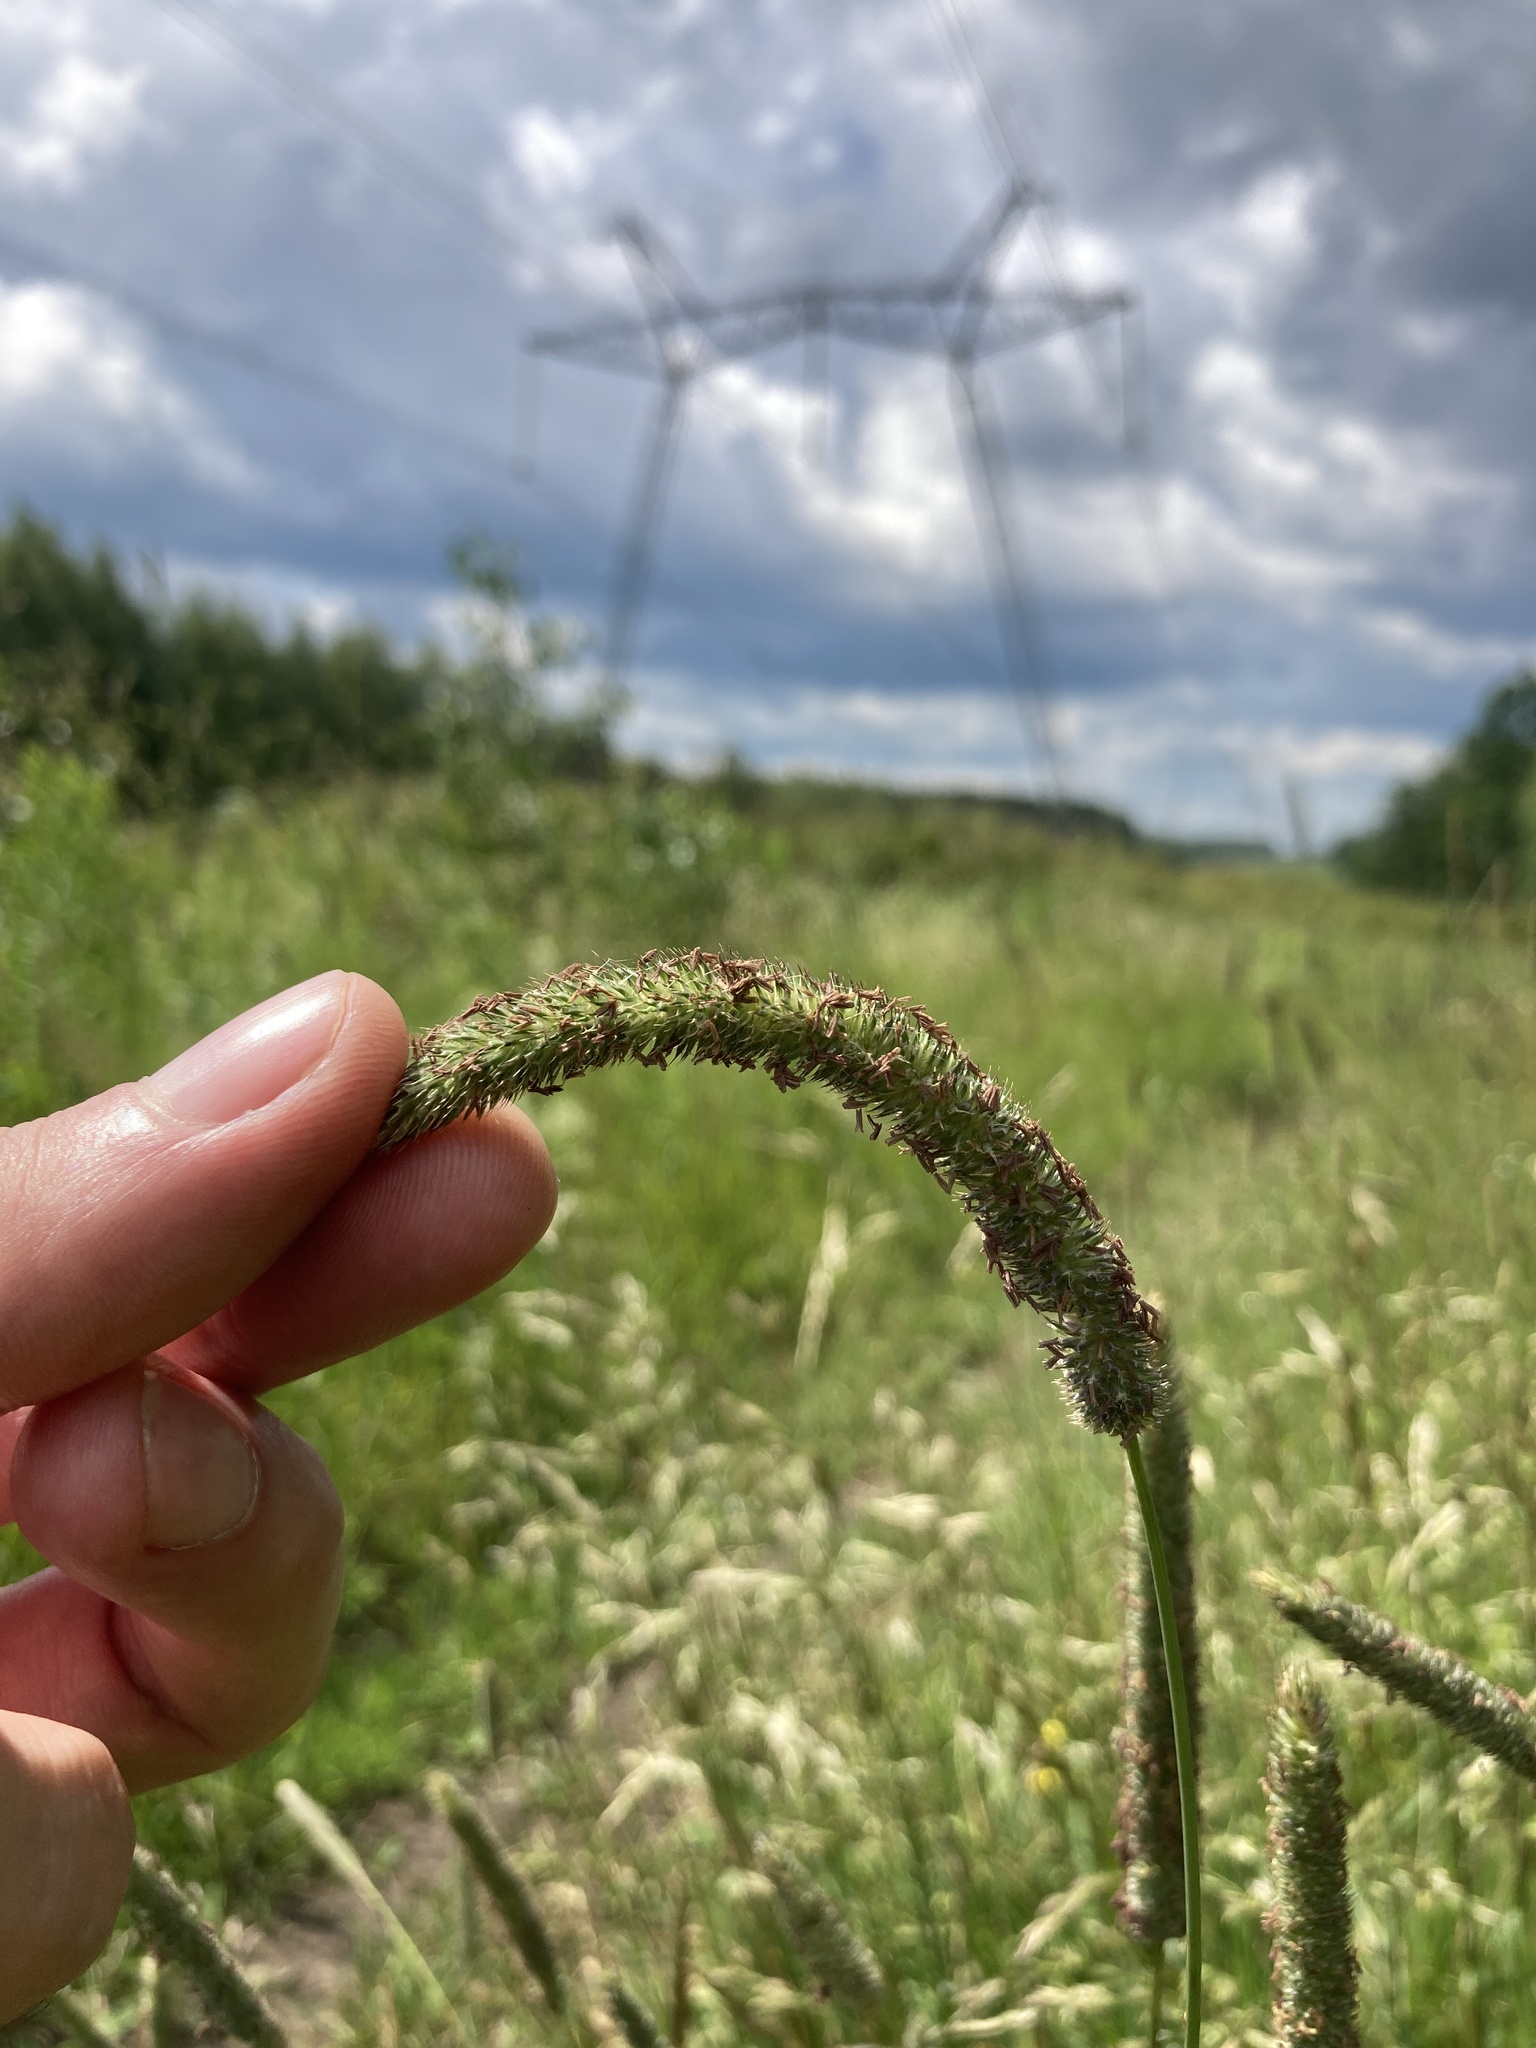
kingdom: Plantae
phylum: Tracheophyta
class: Liliopsida
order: Poales
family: Poaceae
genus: Phleum
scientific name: Phleum pratense
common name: Timothy grass
